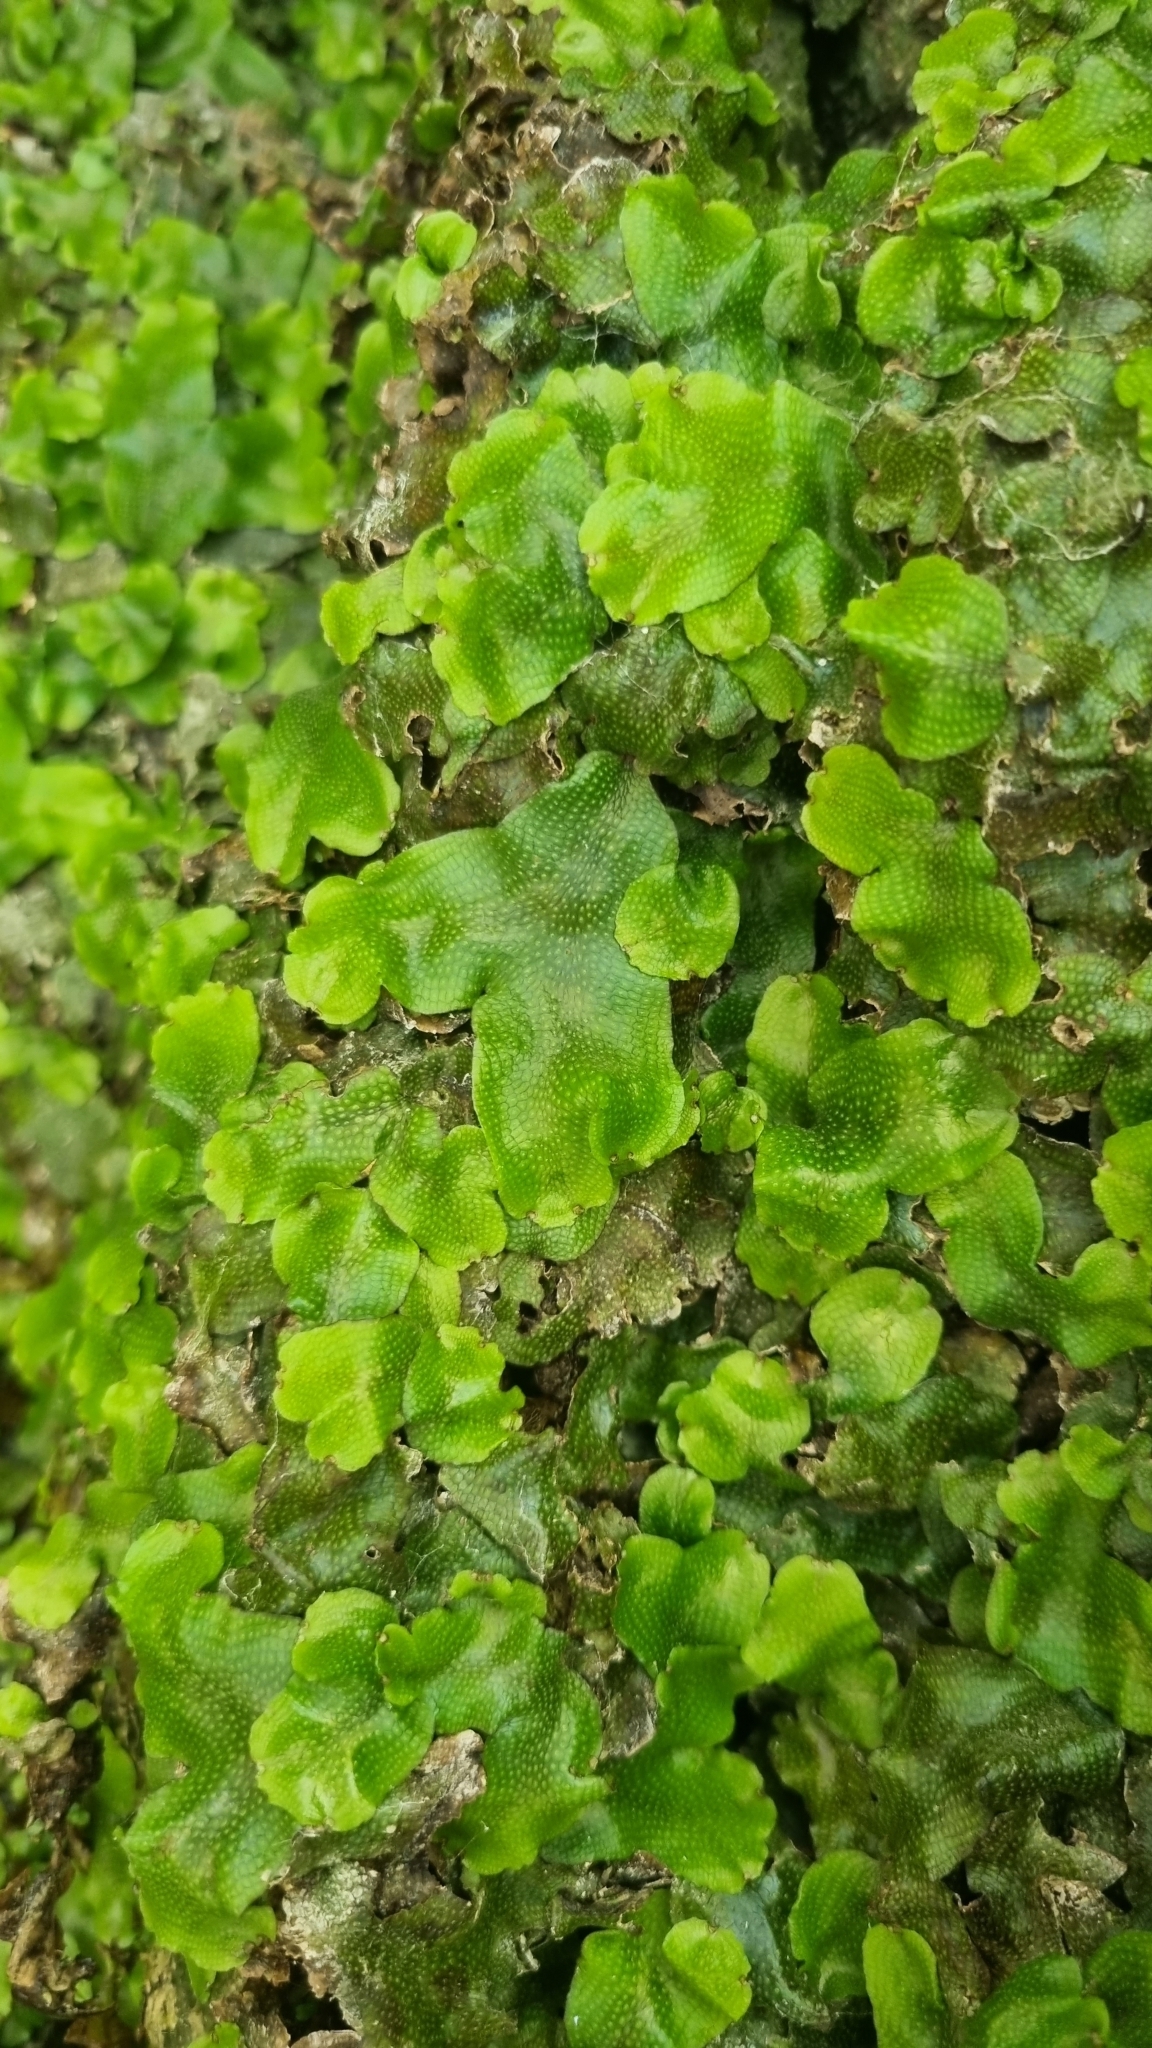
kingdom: Plantae
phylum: Marchantiophyta
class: Marchantiopsida
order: Marchantiales
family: Conocephalaceae
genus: Conocephalum
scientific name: Conocephalum conicum
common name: Great scented liverwort
